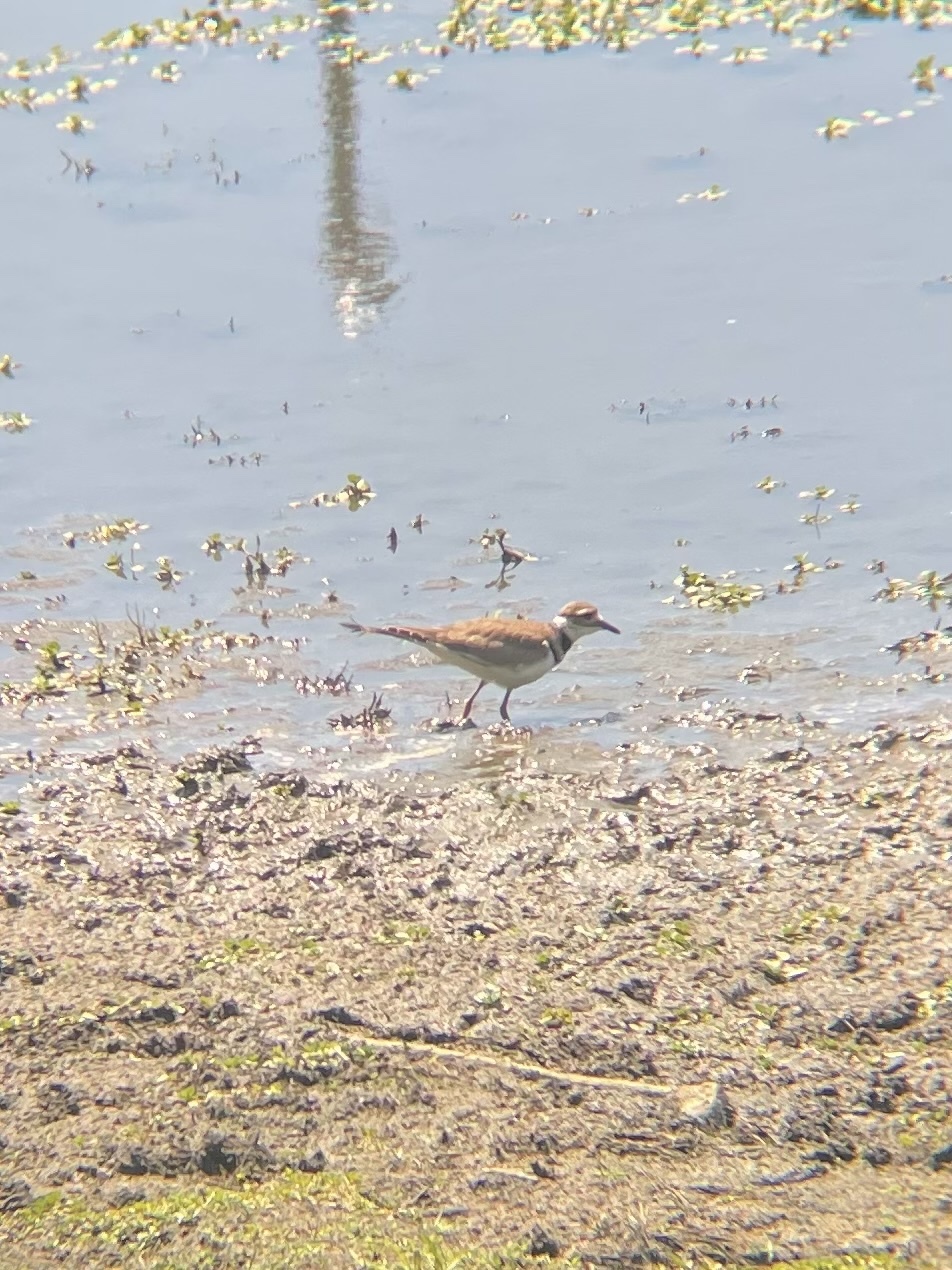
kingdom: Animalia
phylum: Chordata
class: Aves
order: Charadriiformes
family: Charadriidae
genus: Charadrius
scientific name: Charadrius vociferus
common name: Killdeer
